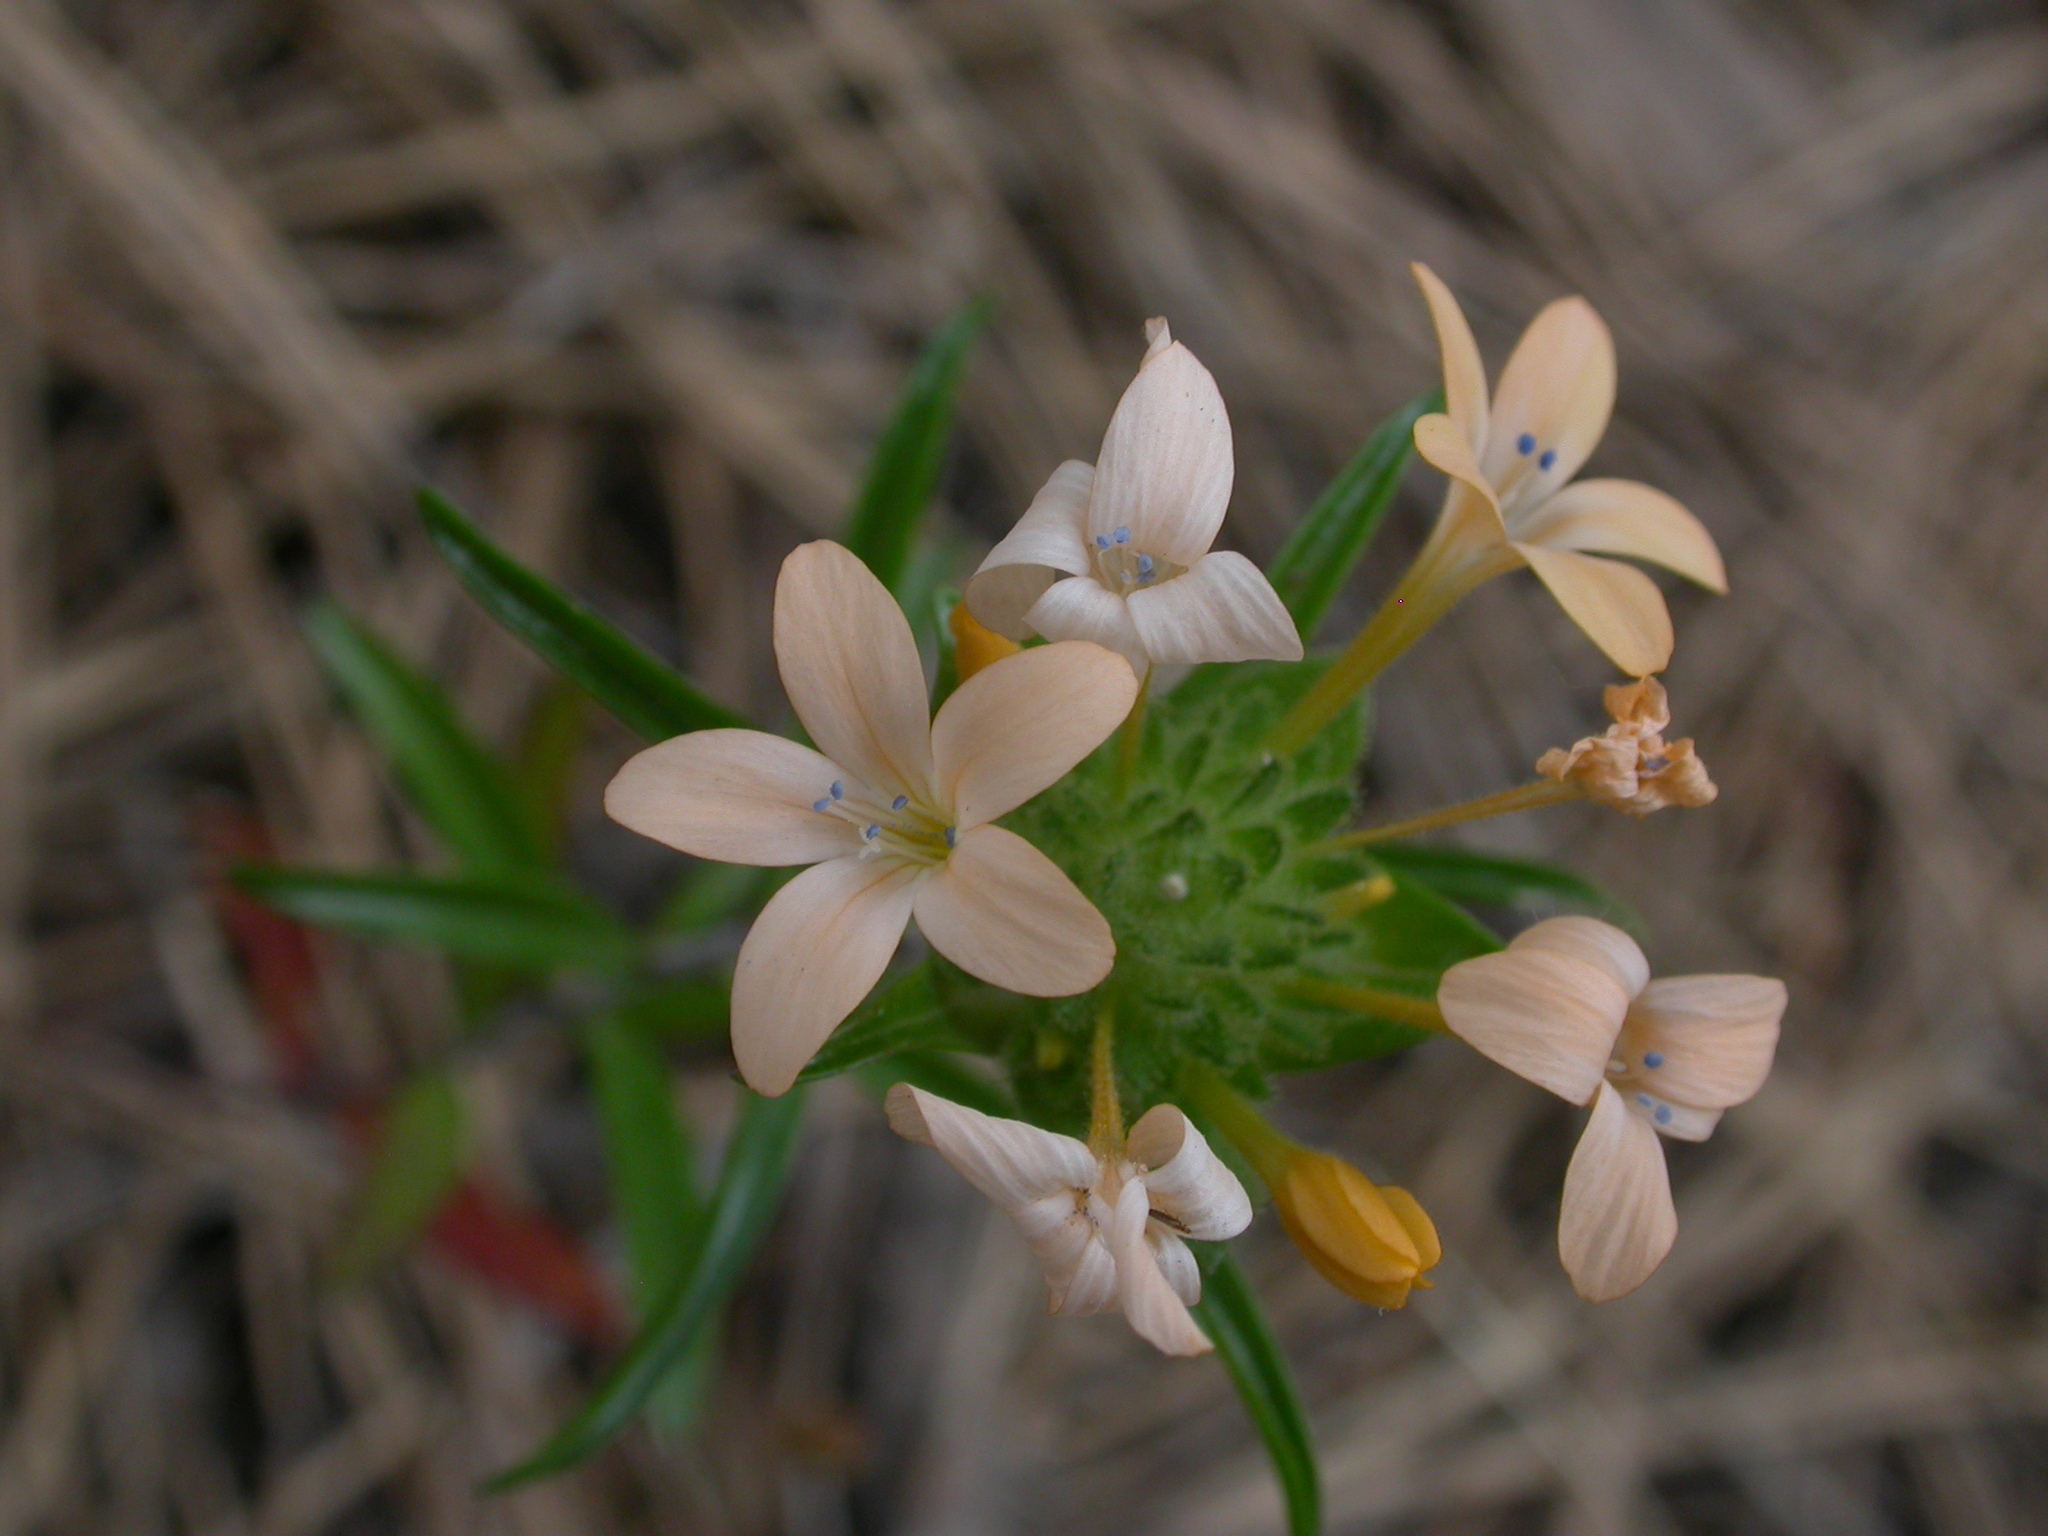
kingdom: Plantae
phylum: Tracheophyta
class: Magnoliopsida
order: Ericales
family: Polemoniaceae
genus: Collomia
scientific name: Collomia grandiflora
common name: California strawflower
